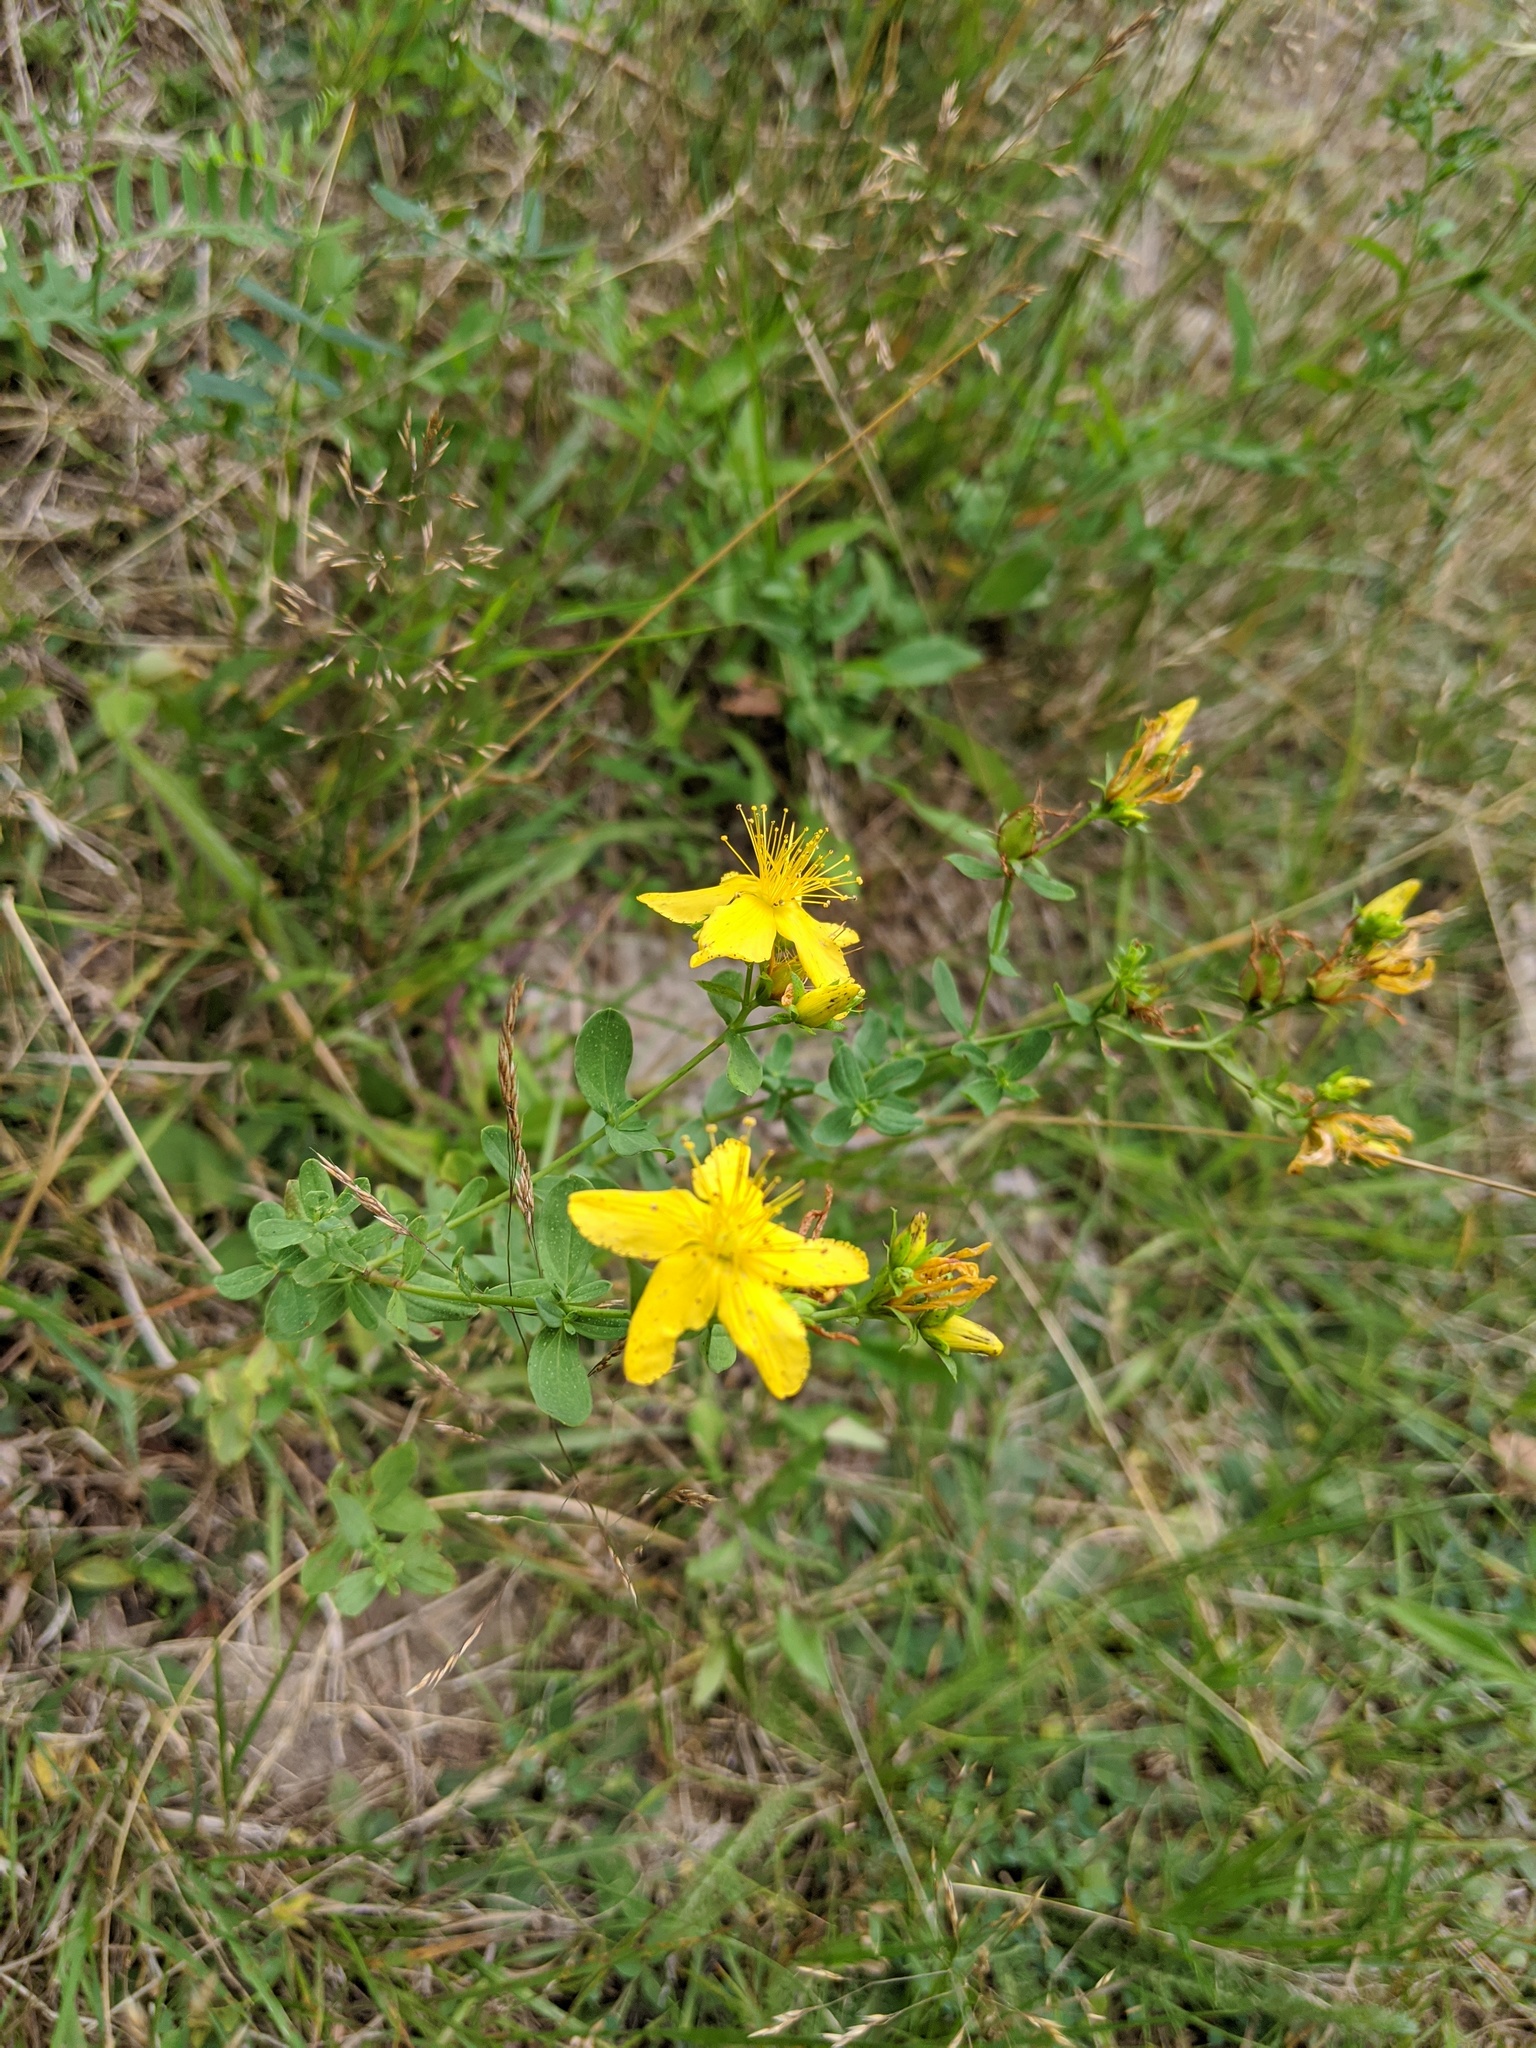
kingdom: Plantae
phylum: Tracheophyta
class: Magnoliopsida
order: Malpighiales
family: Hypericaceae
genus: Hypericum
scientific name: Hypericum perforatum
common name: Common st. johnswort
